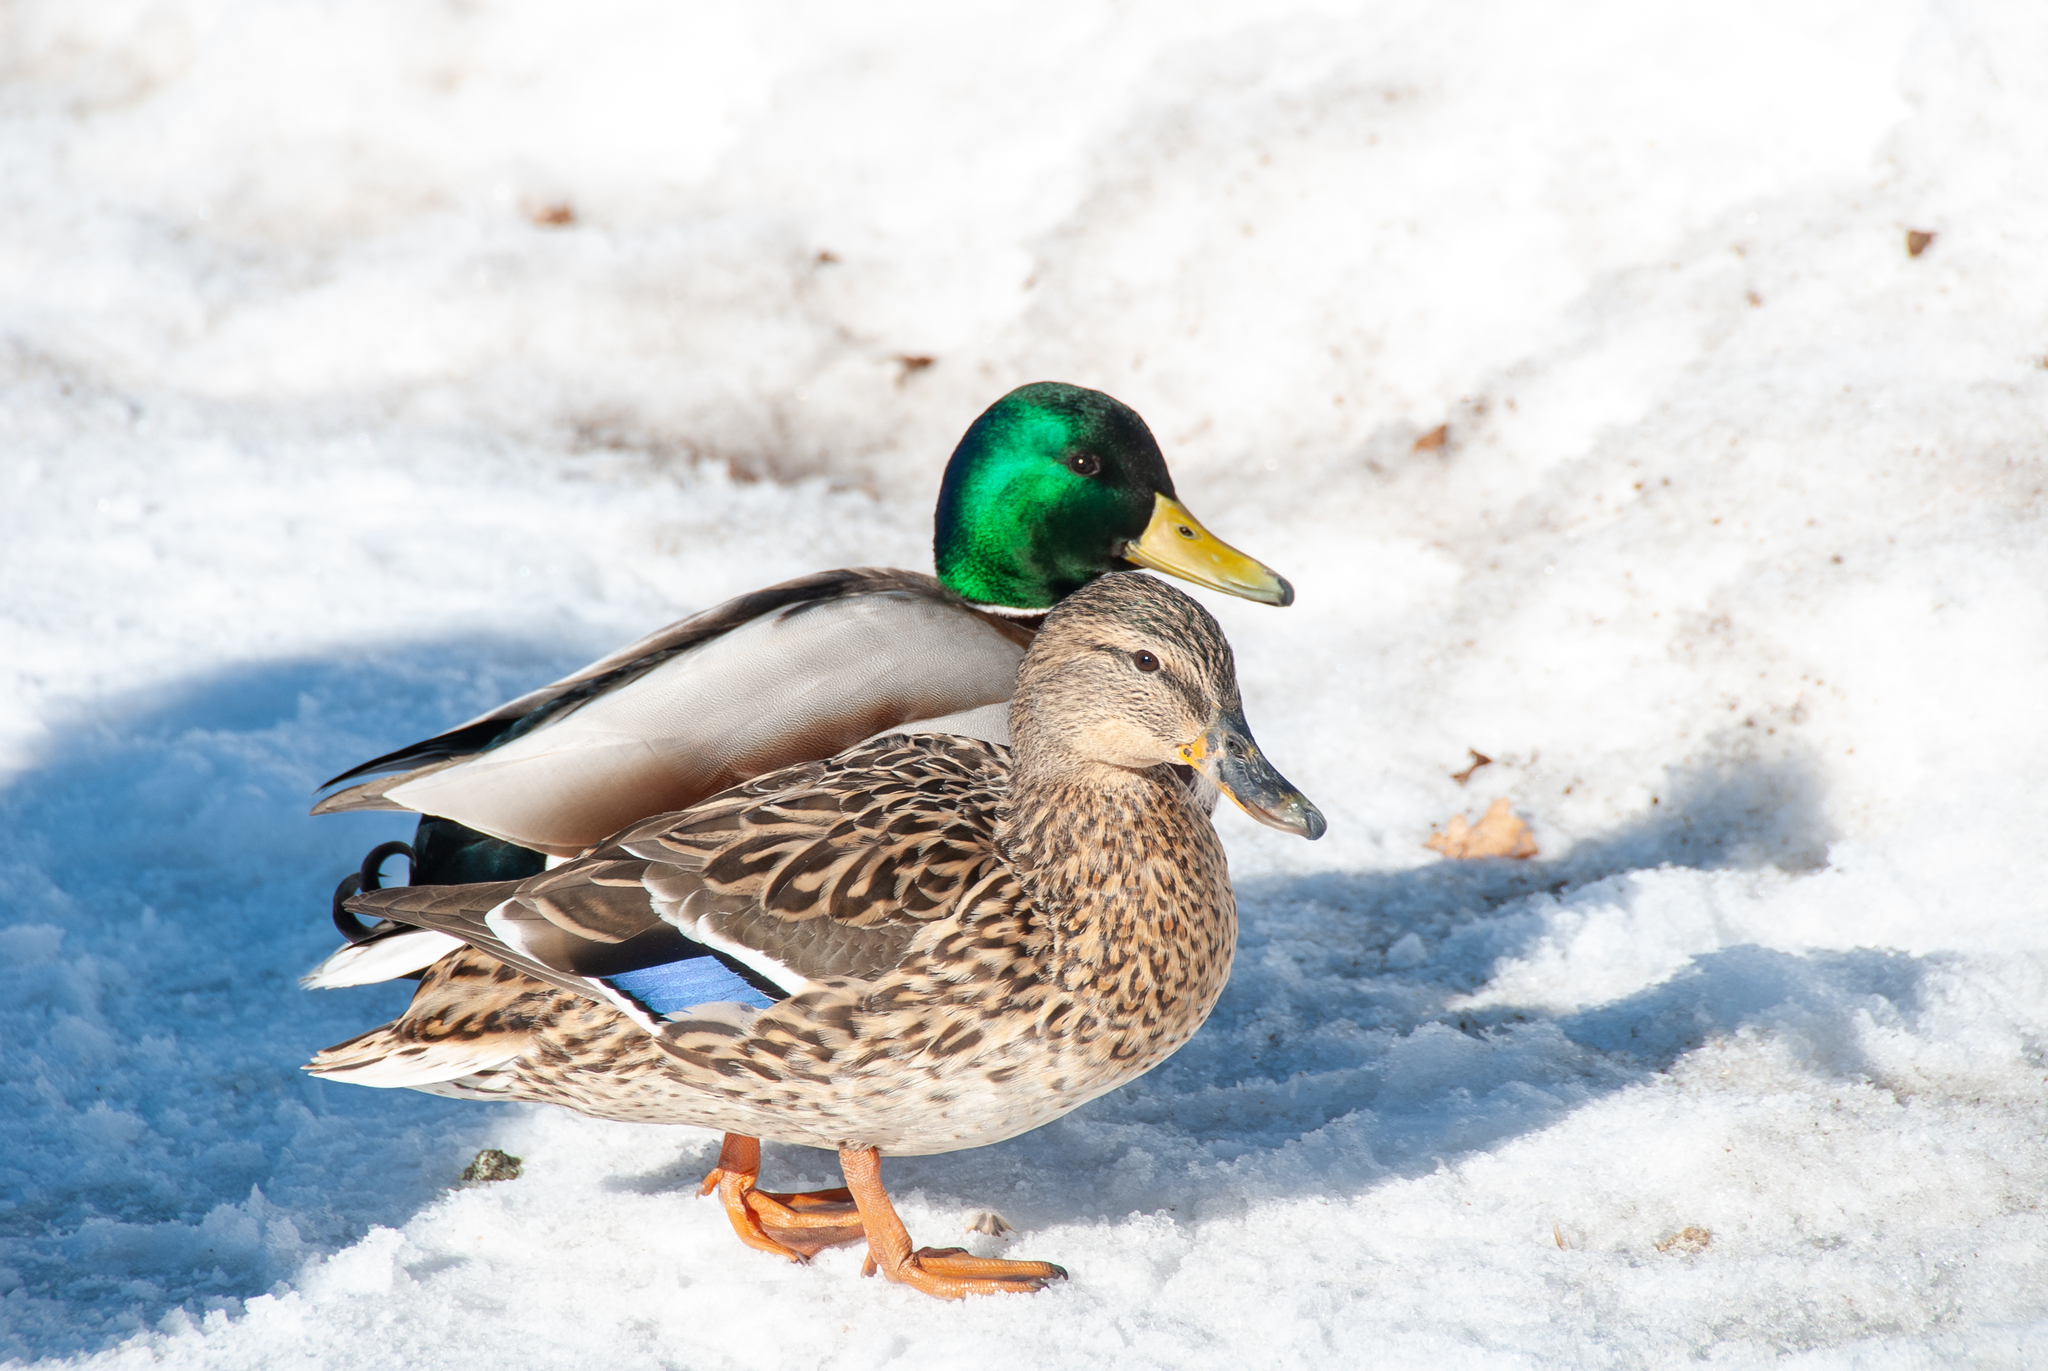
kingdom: Animalia
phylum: Chordata
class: Aves
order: Anseriformes
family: Anatidae
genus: Anas
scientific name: Anas platyrhynchos
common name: Mallard
